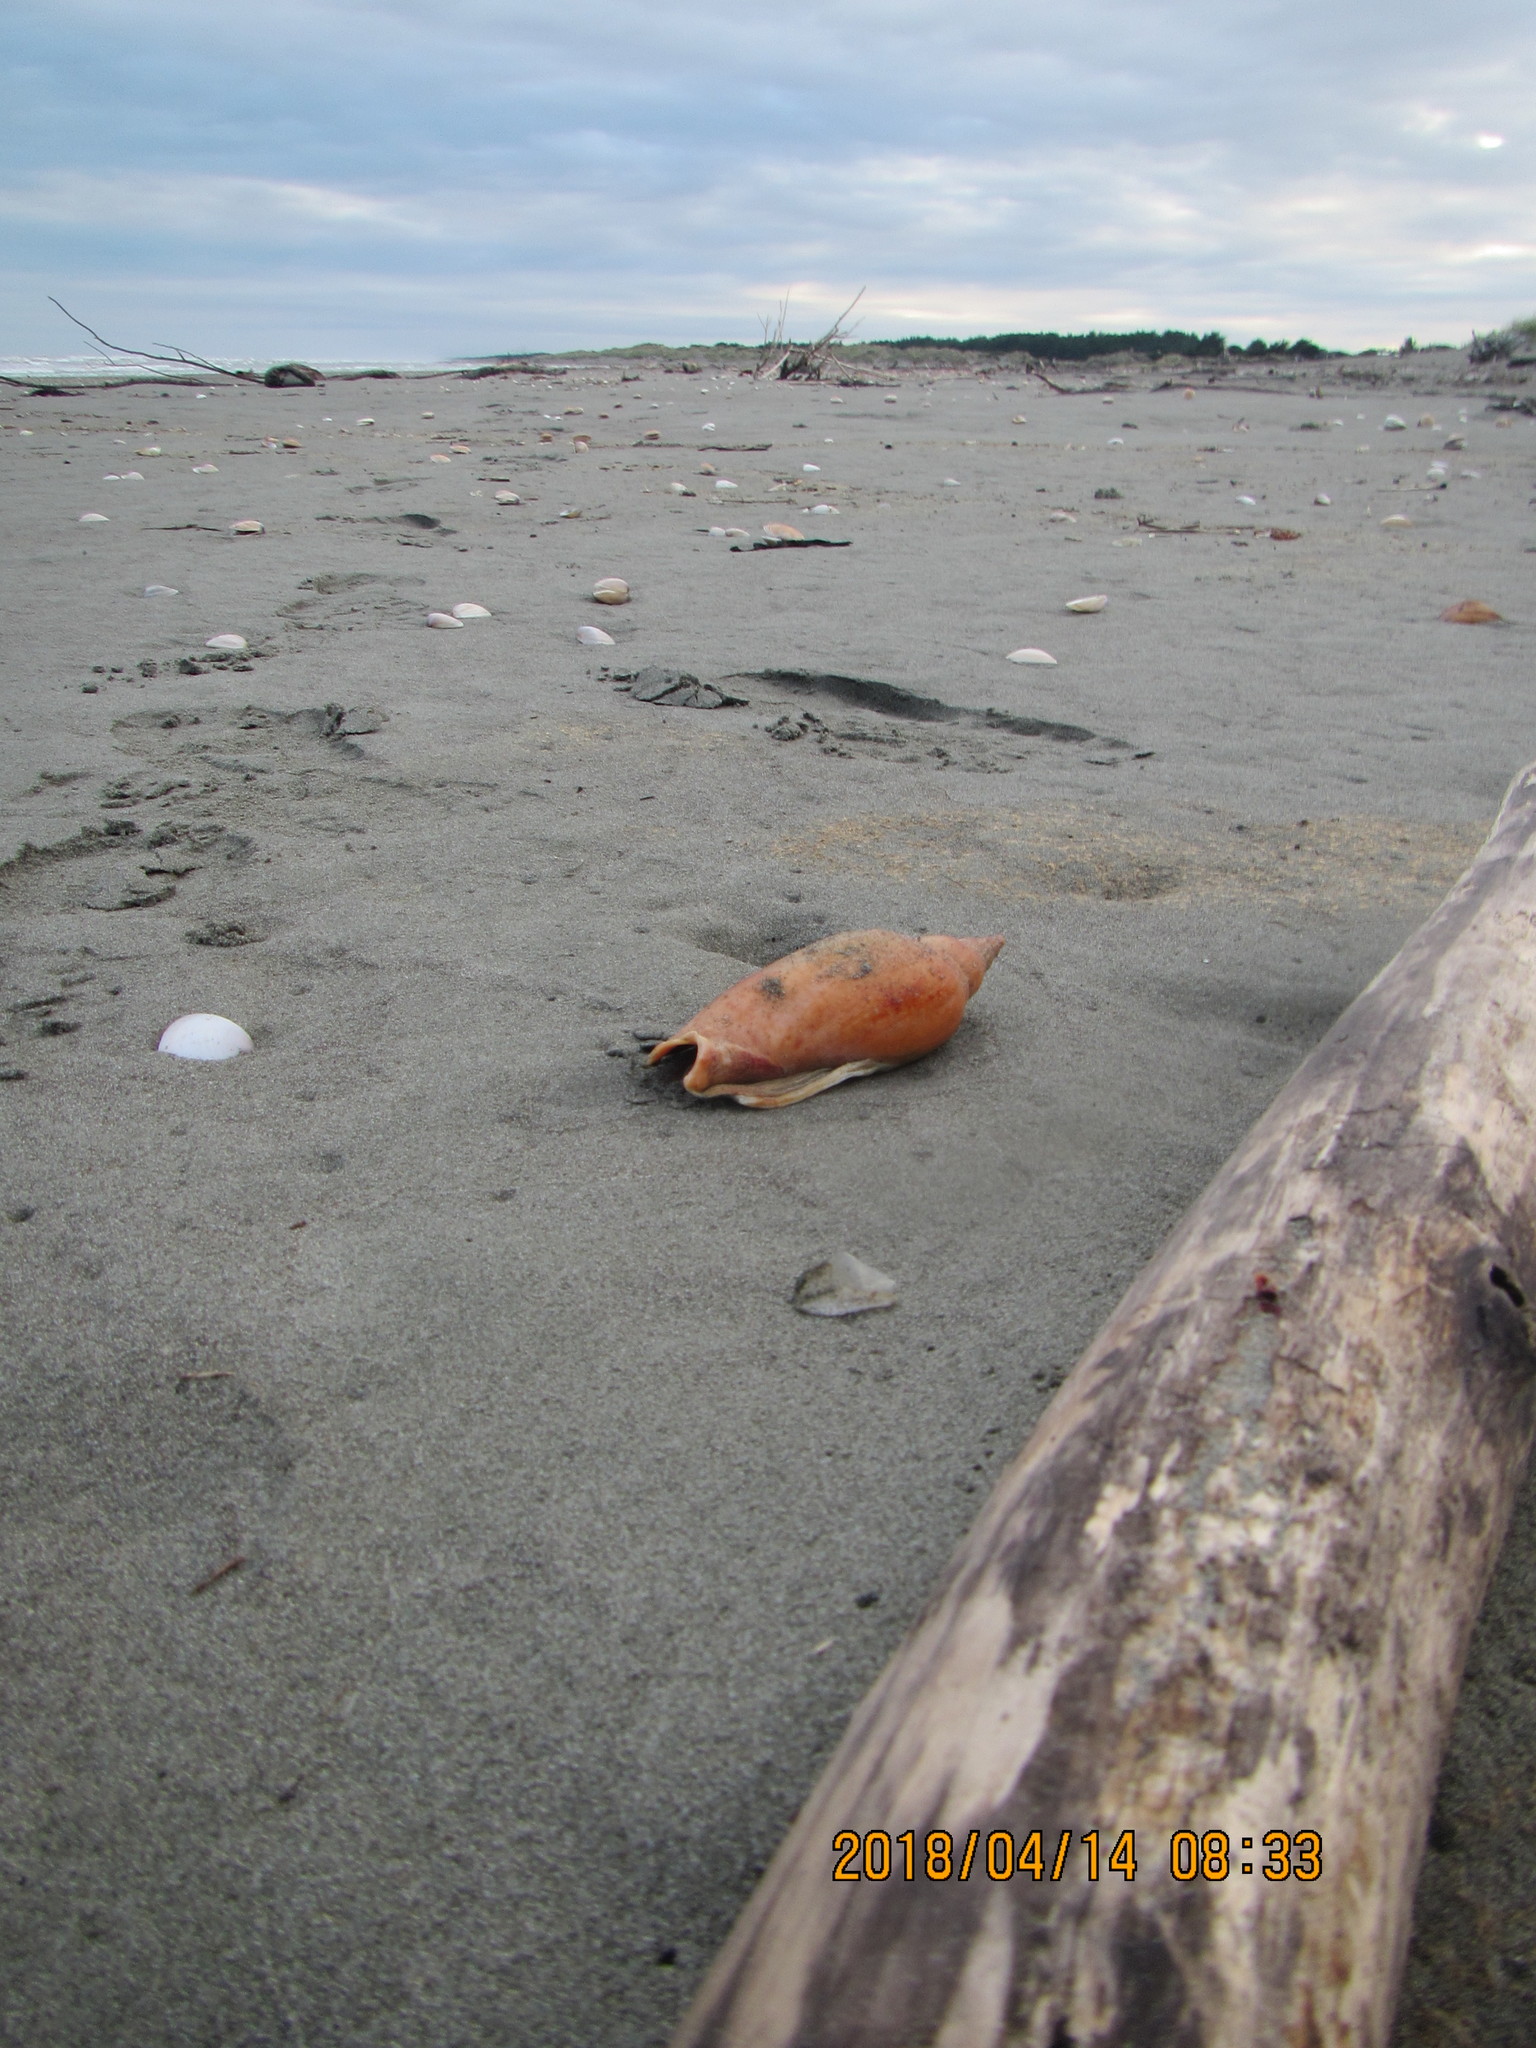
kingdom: Animalia
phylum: Mollusca
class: Gastropoda
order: Neogastropoda
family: Volutidae
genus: Alcithoe
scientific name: Alcithoe arabica
